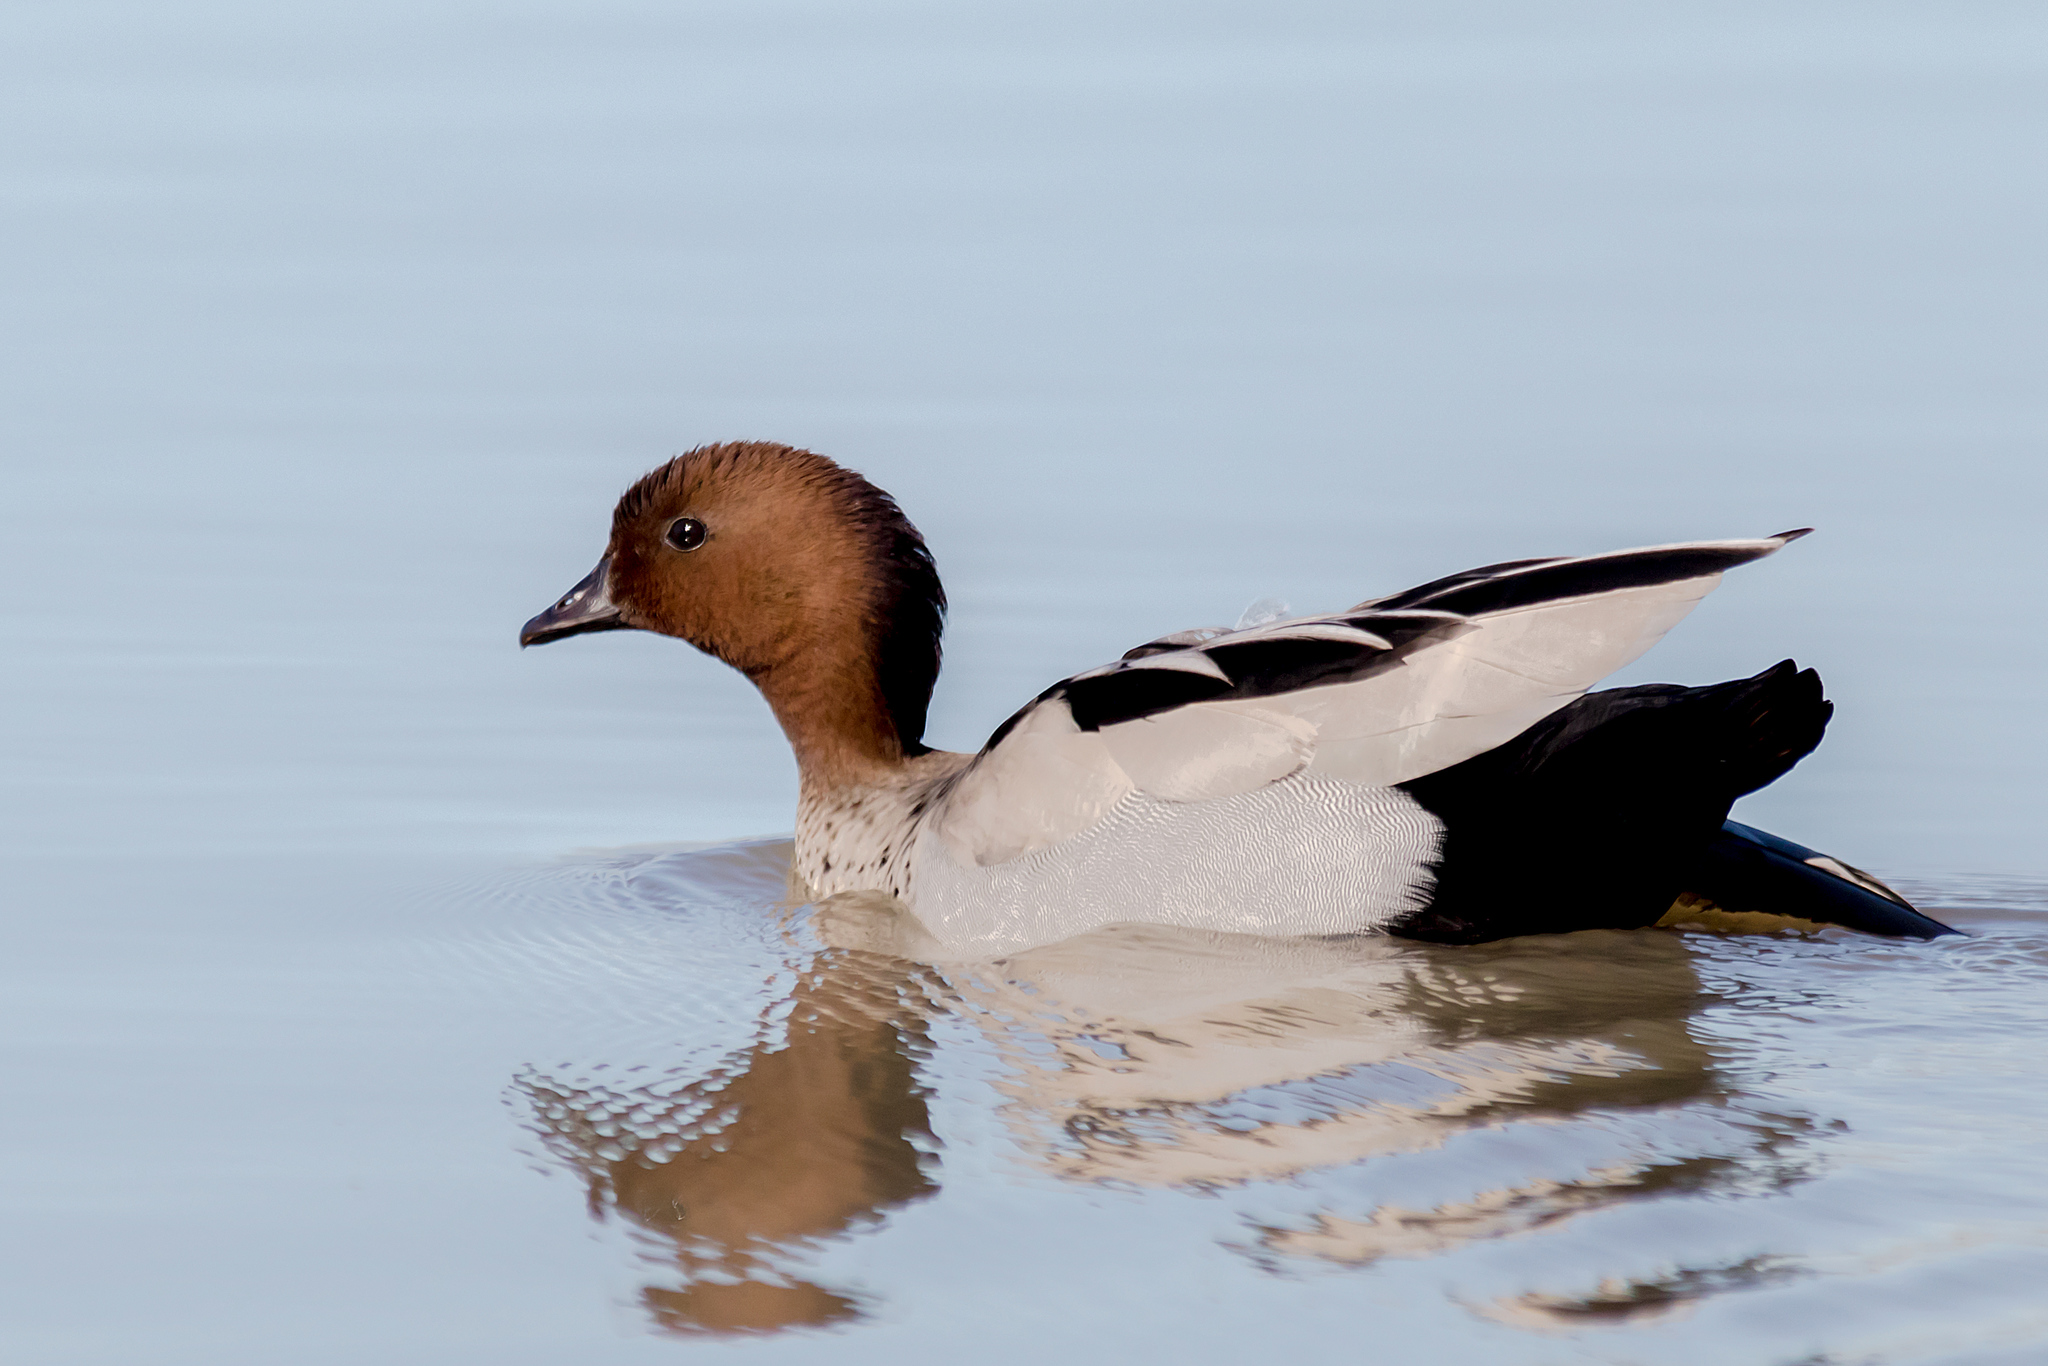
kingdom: Animalia
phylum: Chordata
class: Aves
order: Anseriformes
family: Anatidae
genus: Chenonetta
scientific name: Chenonetta jubata
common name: Maned duck
